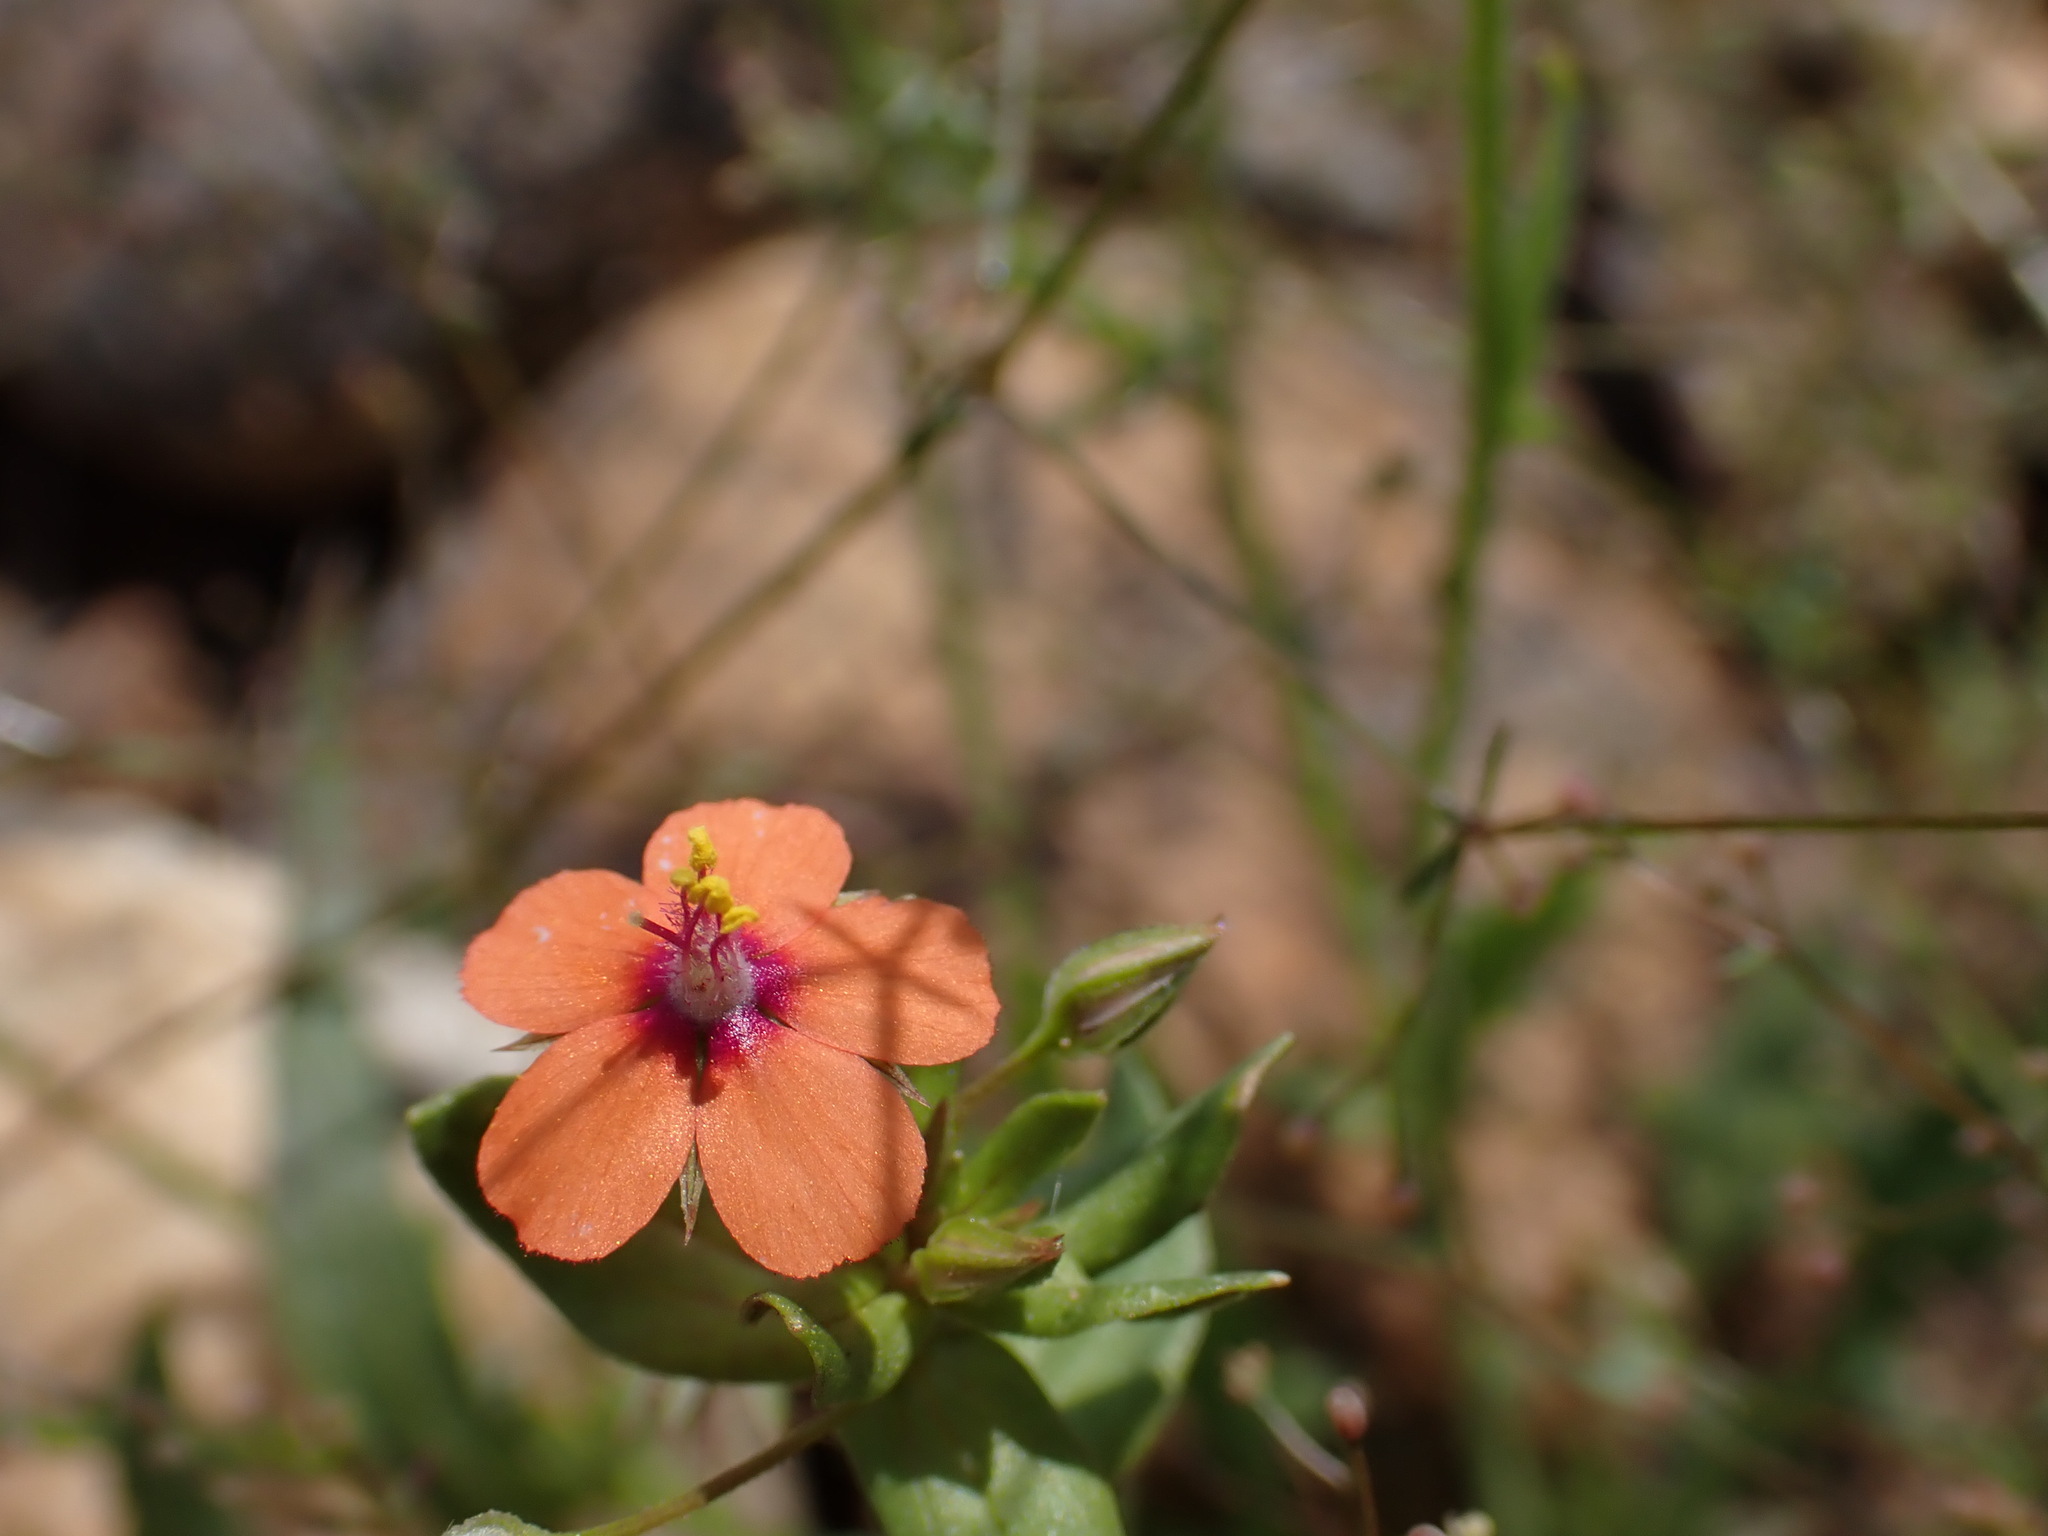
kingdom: Plantae
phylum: Tracheophyta
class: Magnoliopsida
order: Ericales
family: Primulaceae
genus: Lysimachia
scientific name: Lysimachia arvensis
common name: Scarlet pimpernel
